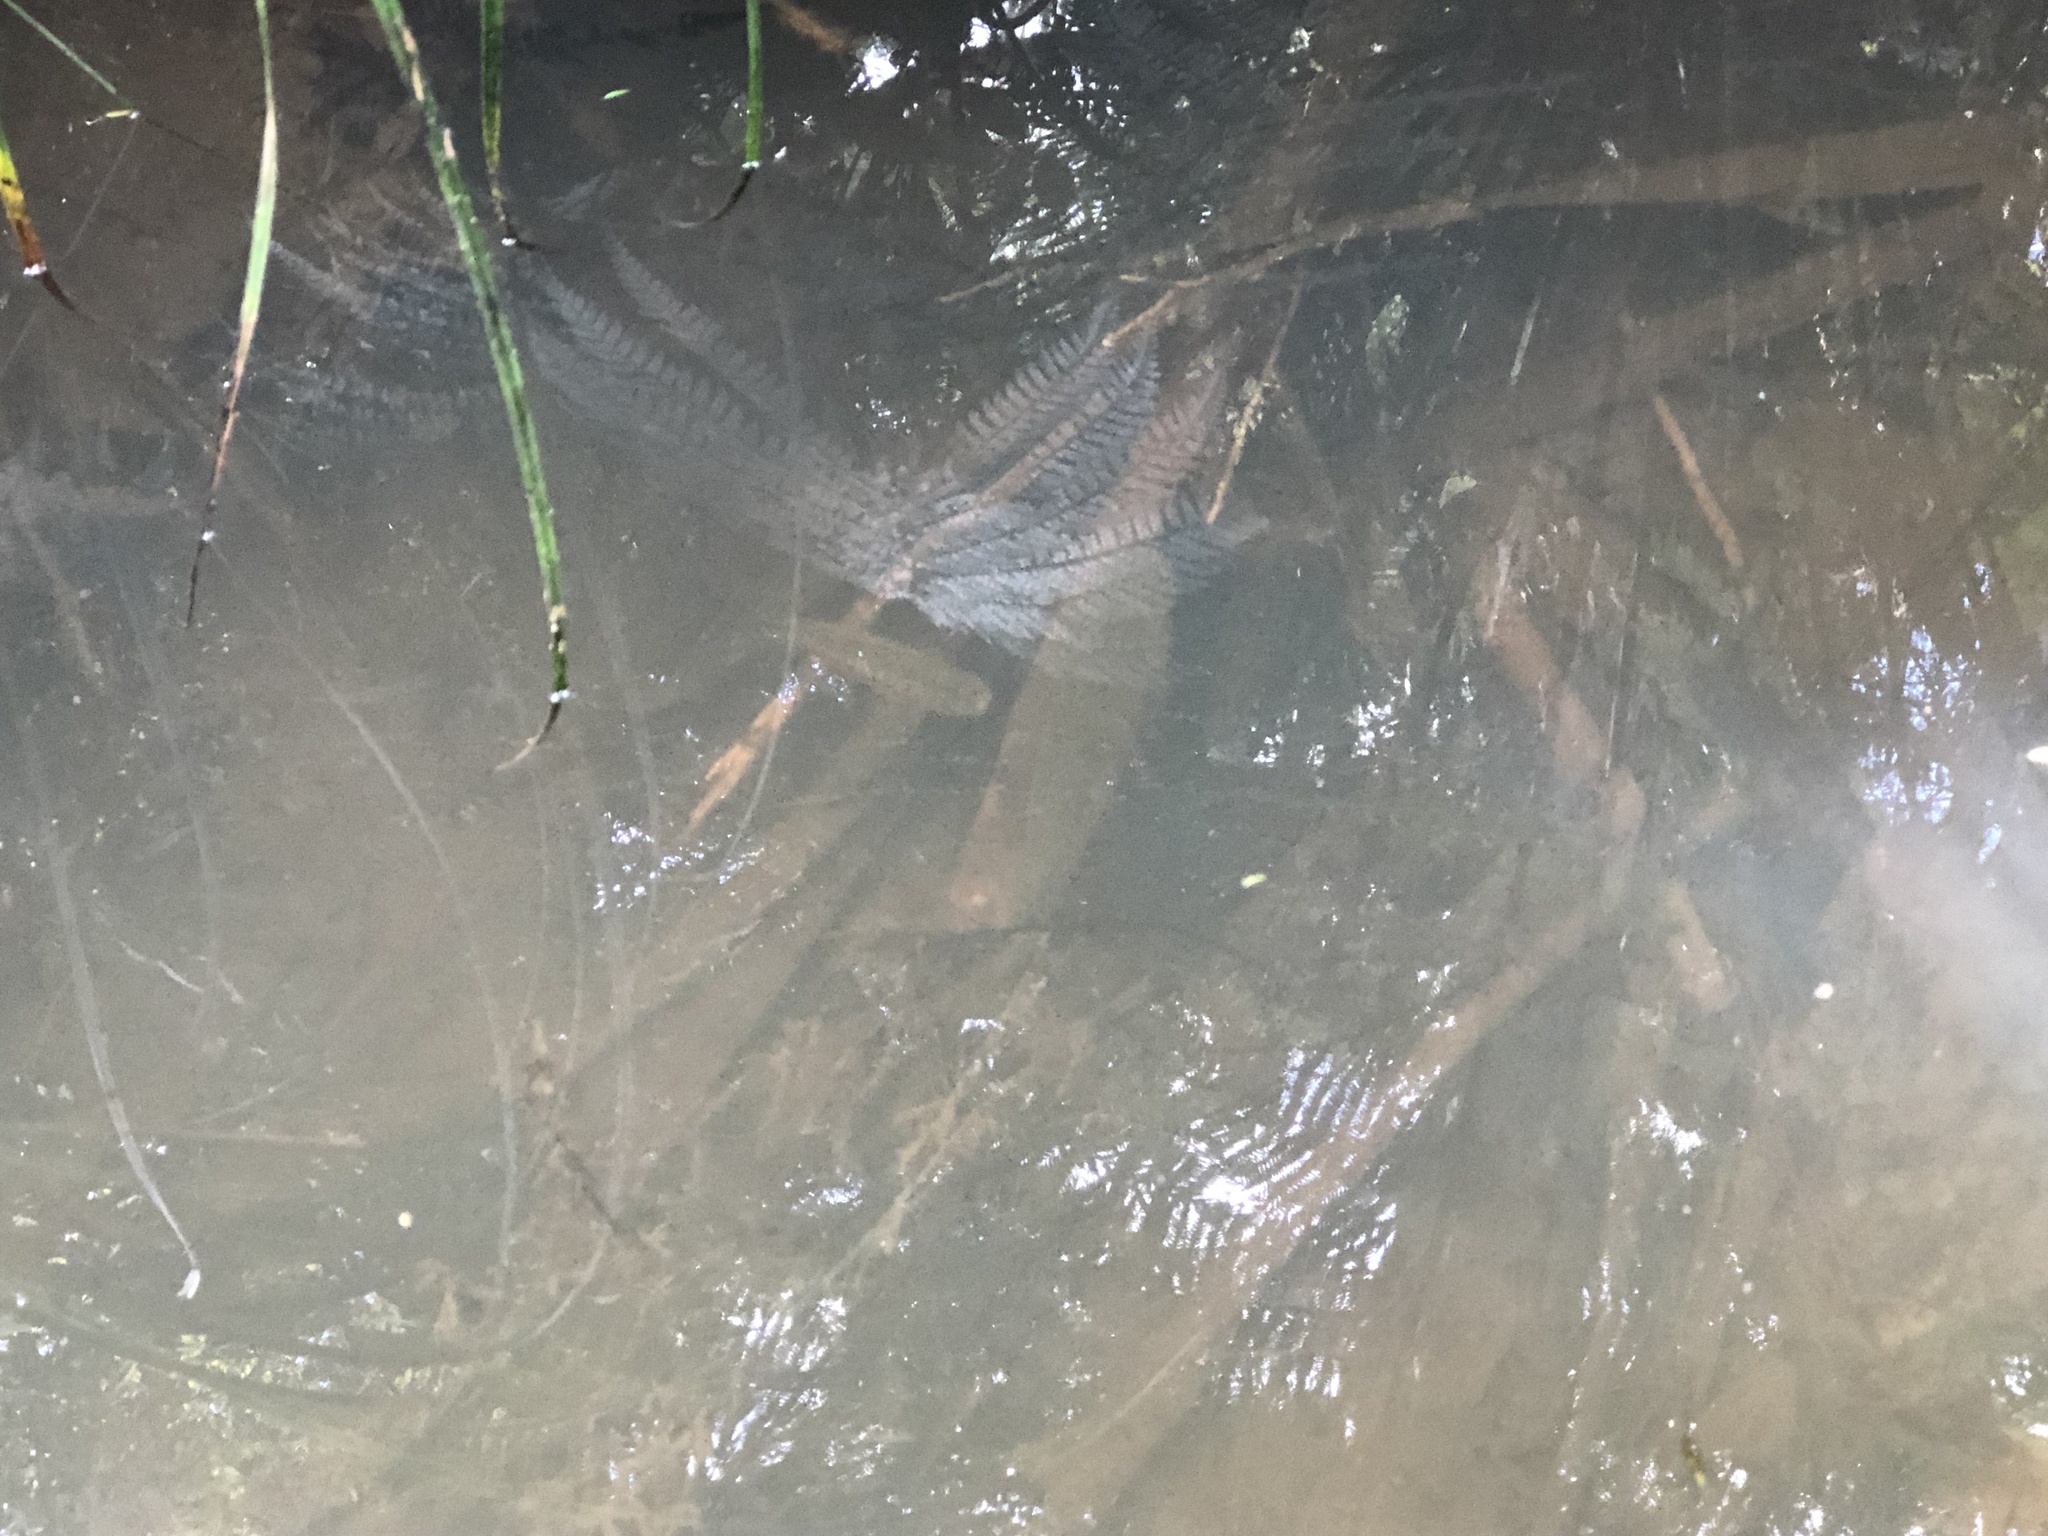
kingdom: Animalia
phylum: Chordata
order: Osmeriformes
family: Galaxiidae
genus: Galaxias
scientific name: Galaxias fasciatus
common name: Banded kokopu
